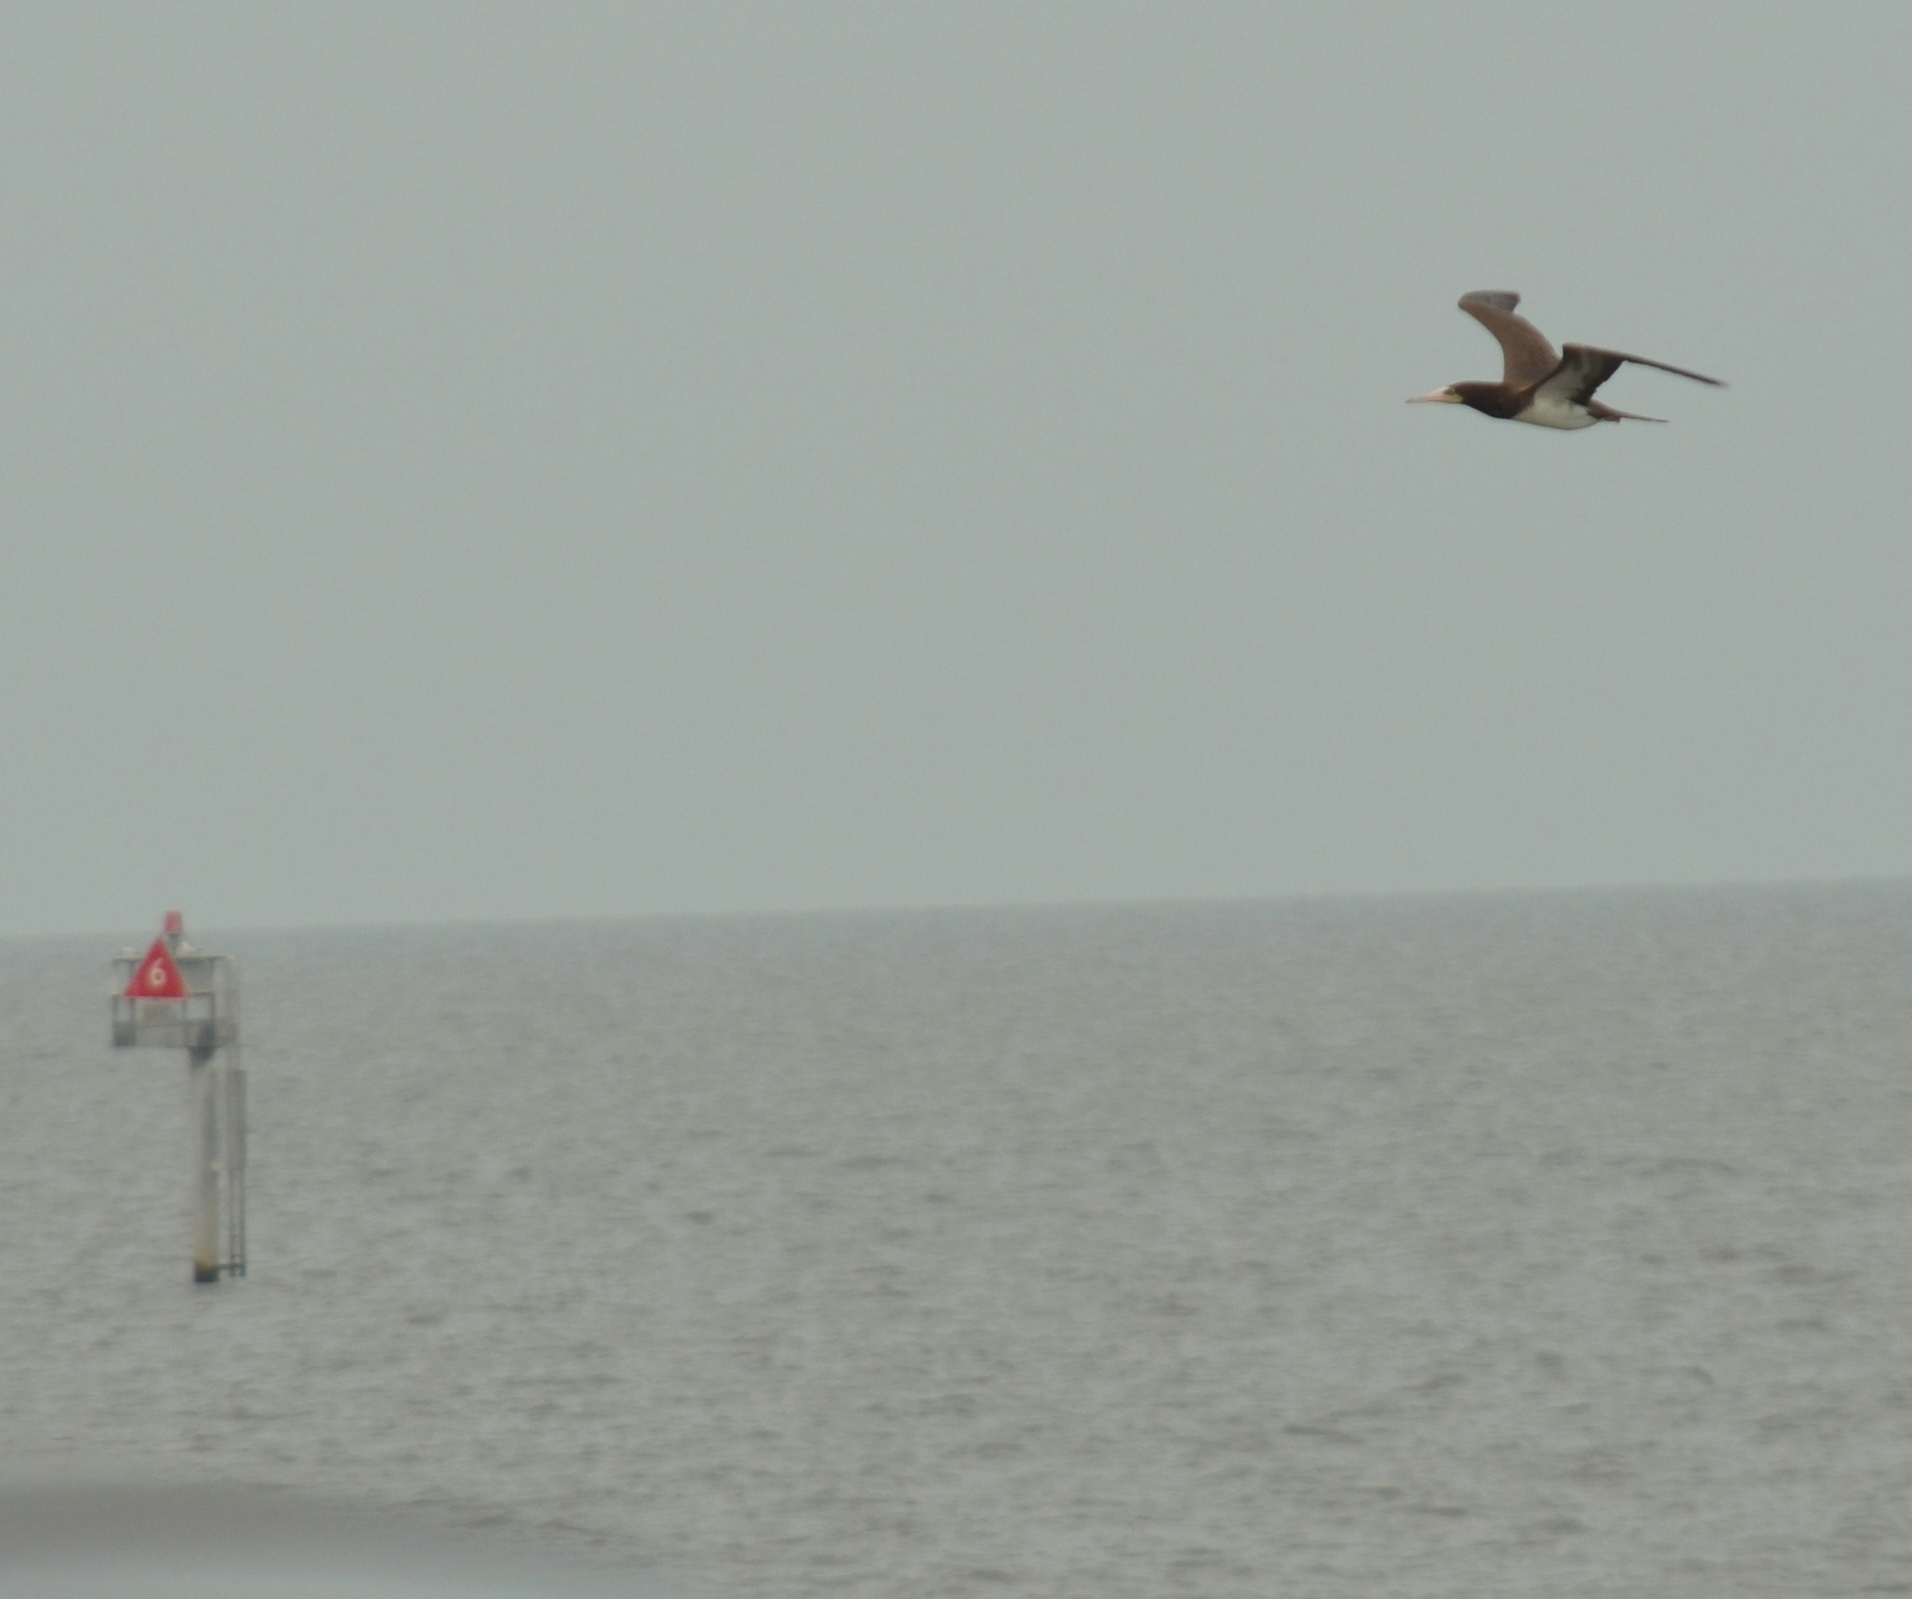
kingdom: Animalia
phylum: Chordata
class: Aves
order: Suliformes
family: Sulidae
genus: Sula
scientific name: Sula leucogaster
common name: Brown booby
